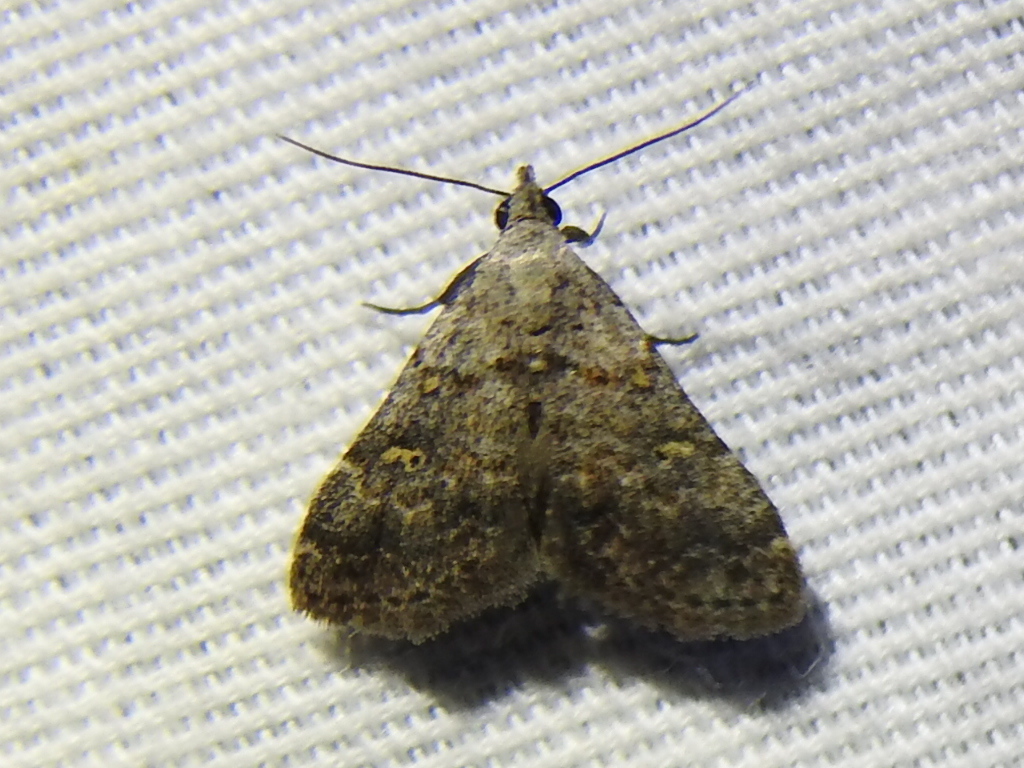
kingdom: Animalia
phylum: Arthropoda
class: Insecta
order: Lepidoptera
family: Erebidae
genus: Bleptina
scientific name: Bleptina minimalis
